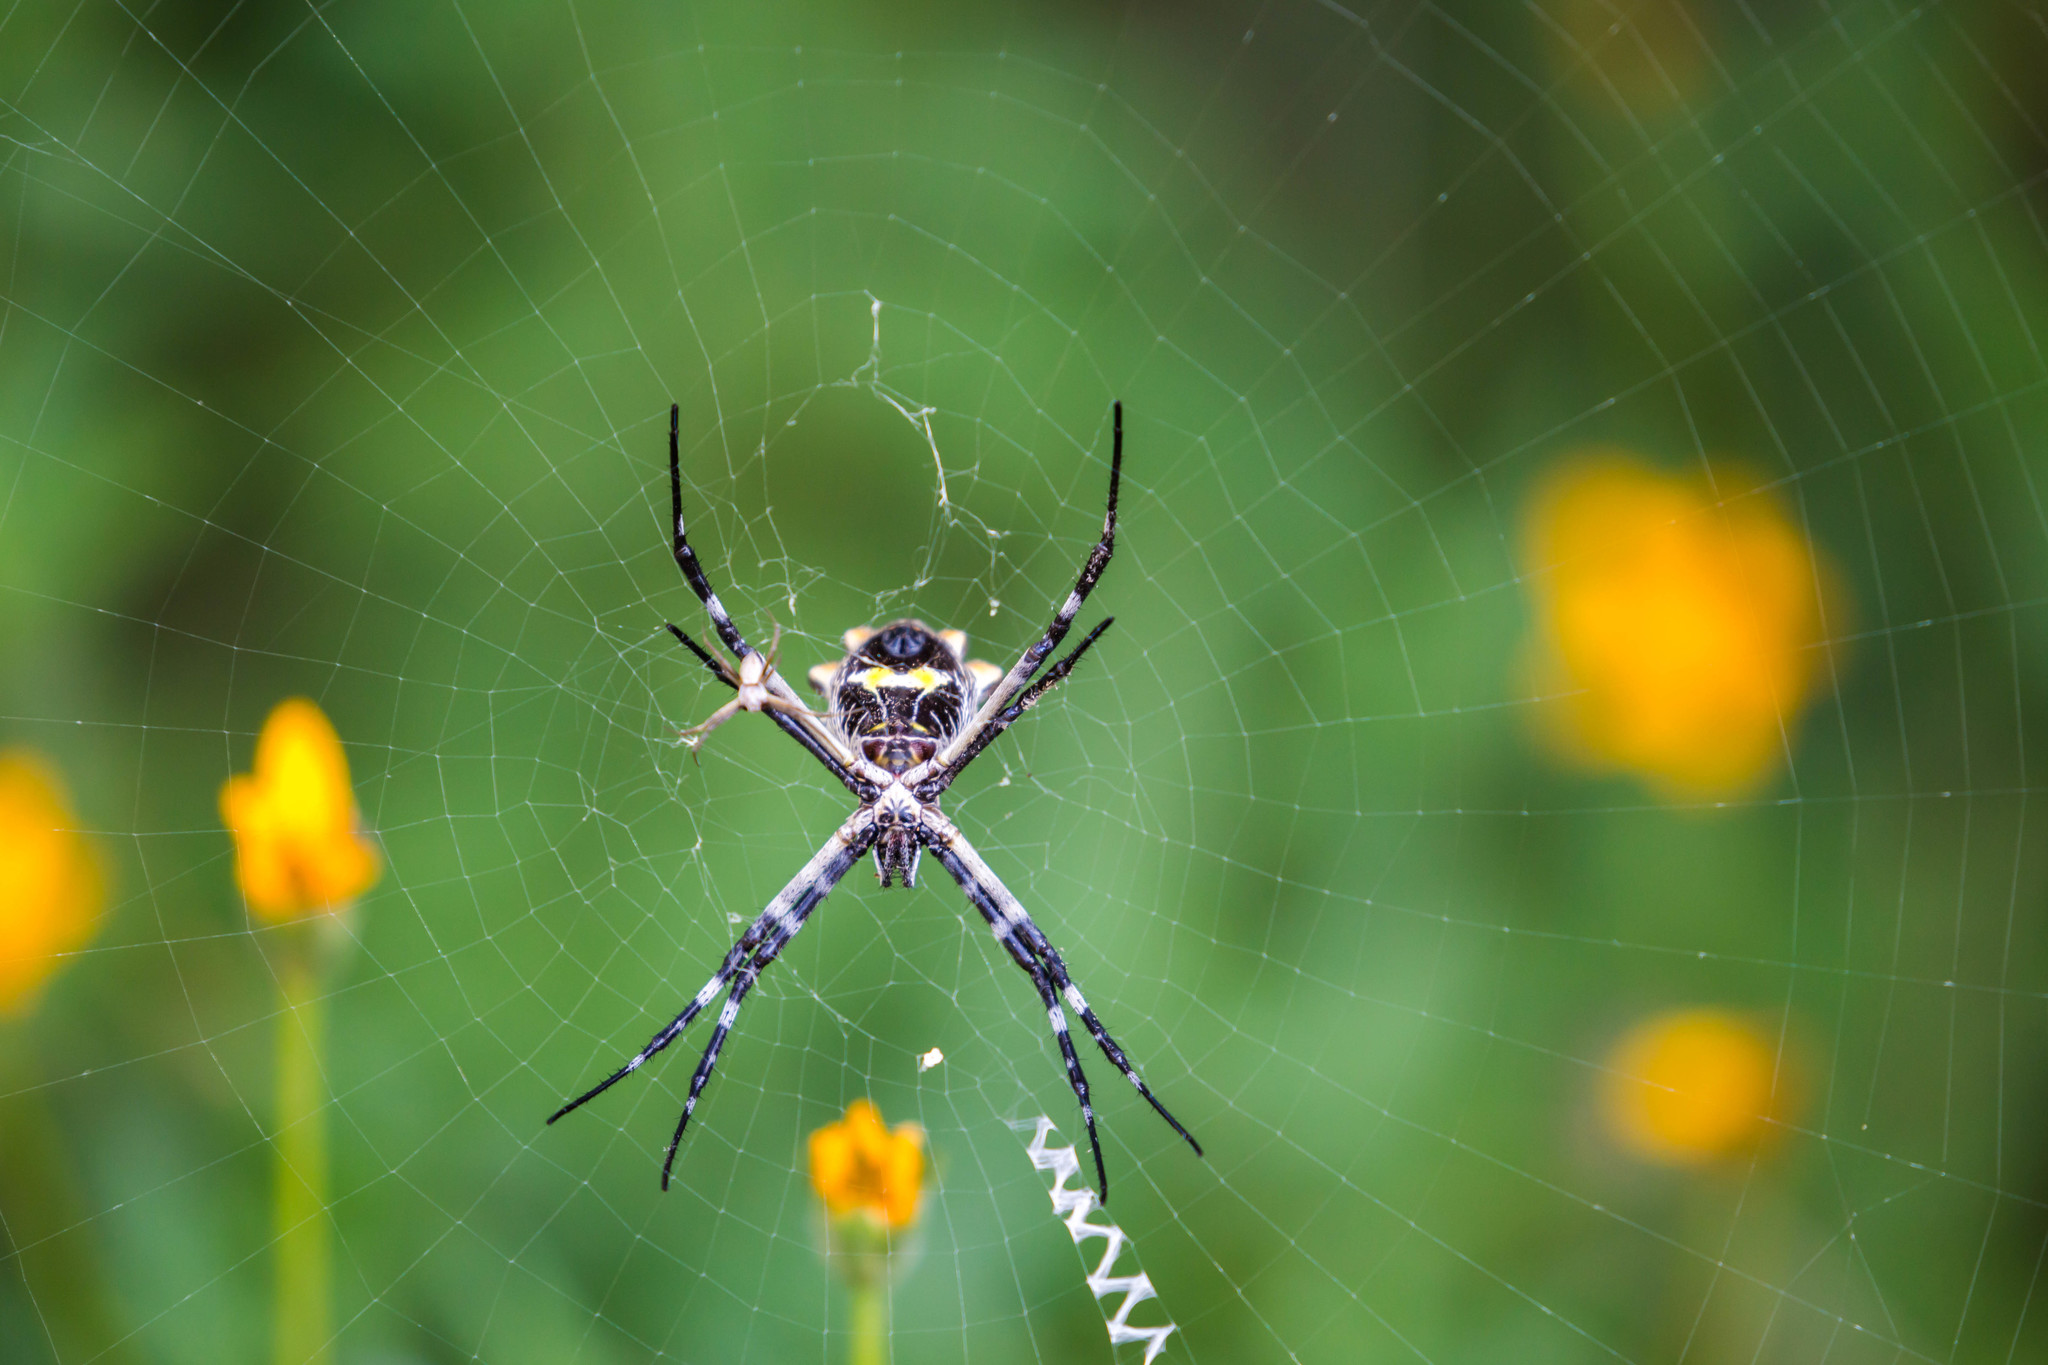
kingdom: Animalia
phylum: Arthropoda
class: Arachnida
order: Araneae
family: Araneidae
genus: Argiope
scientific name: Argiope argentata
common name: Orb weavers
